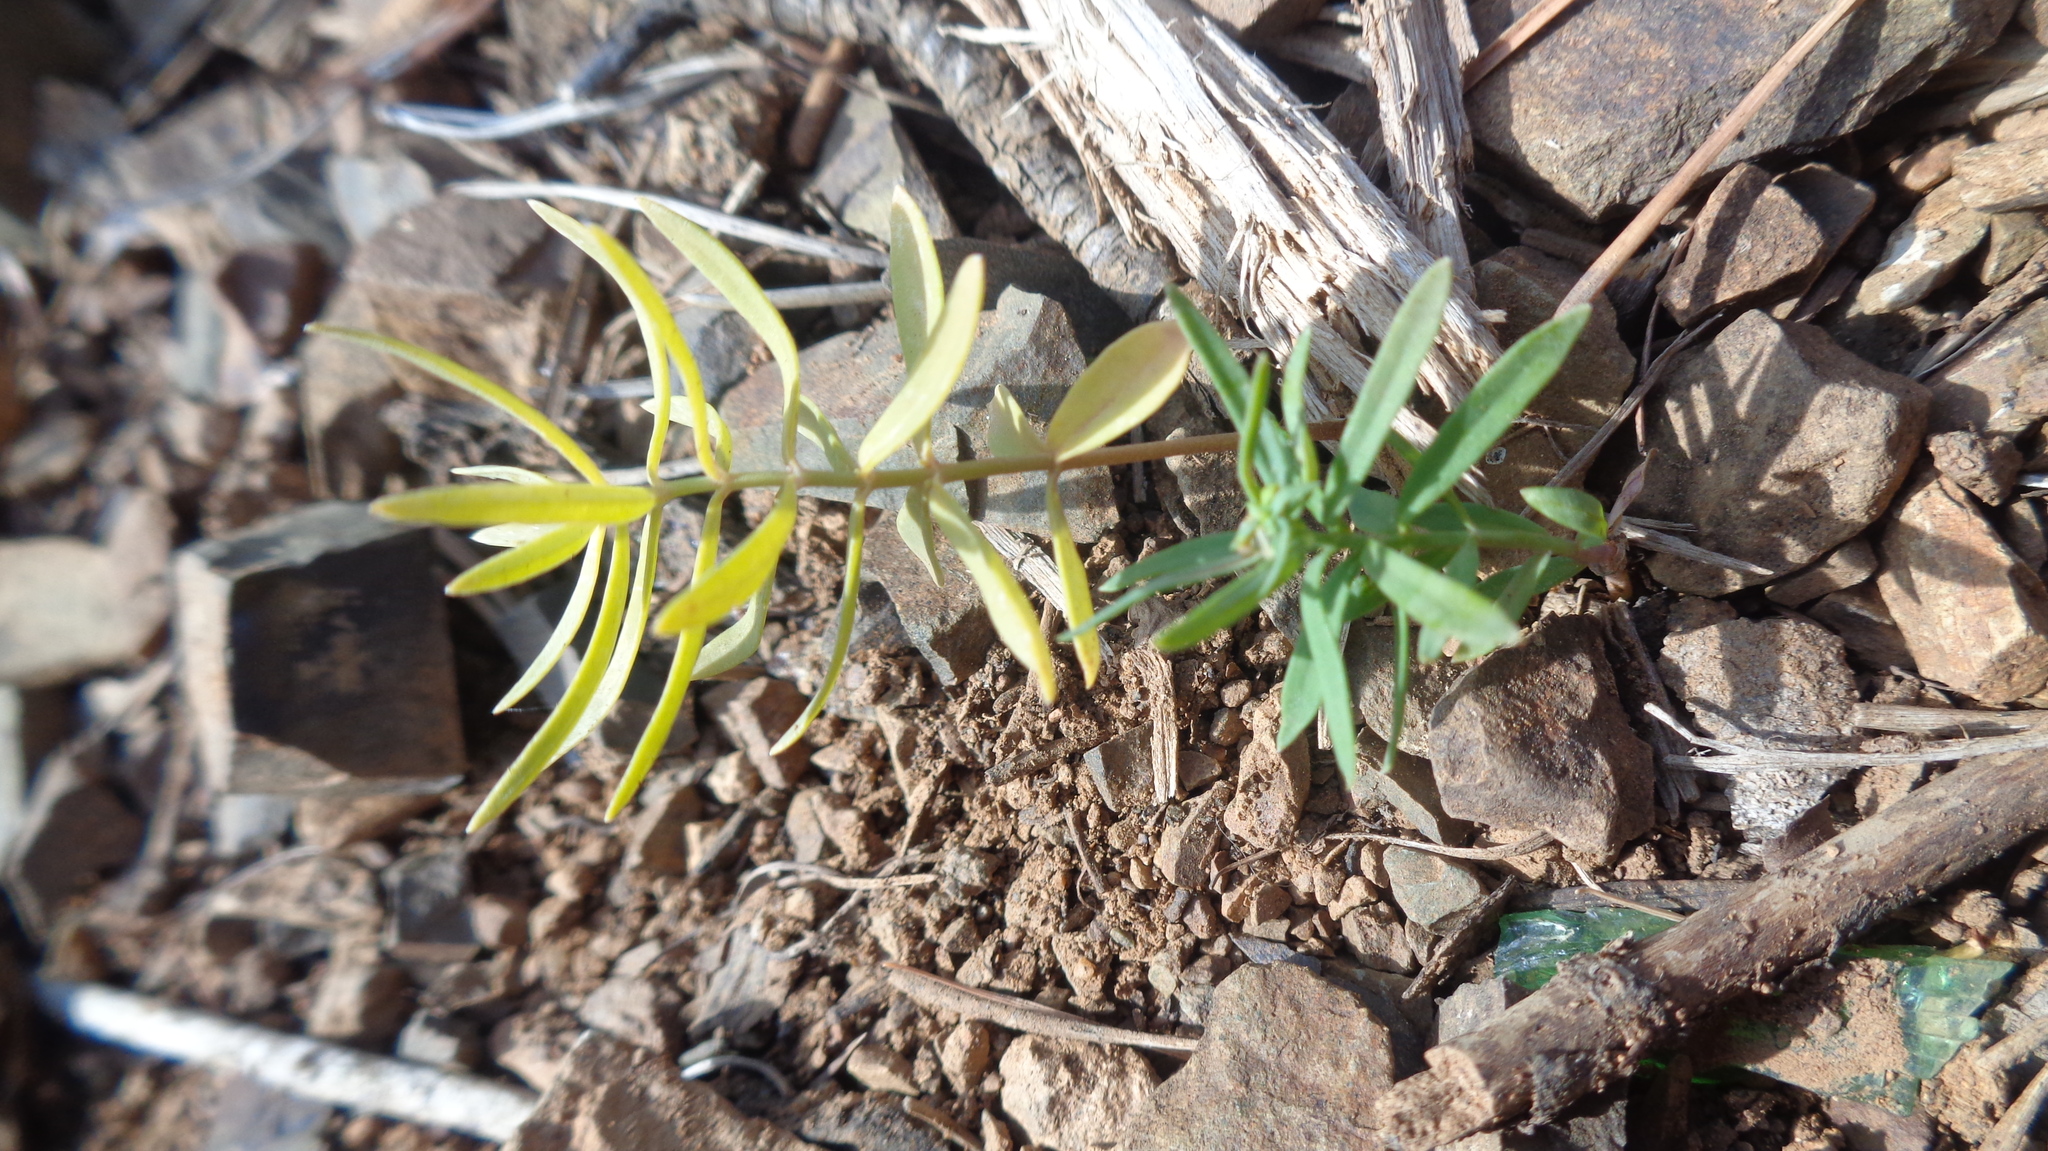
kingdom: Plantae
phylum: Tracheophyta
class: Magnoliopsida
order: Lamiales
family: Plantaginaceae
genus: Linaria
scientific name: Linaria vulgaris
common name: Butter and eggs
